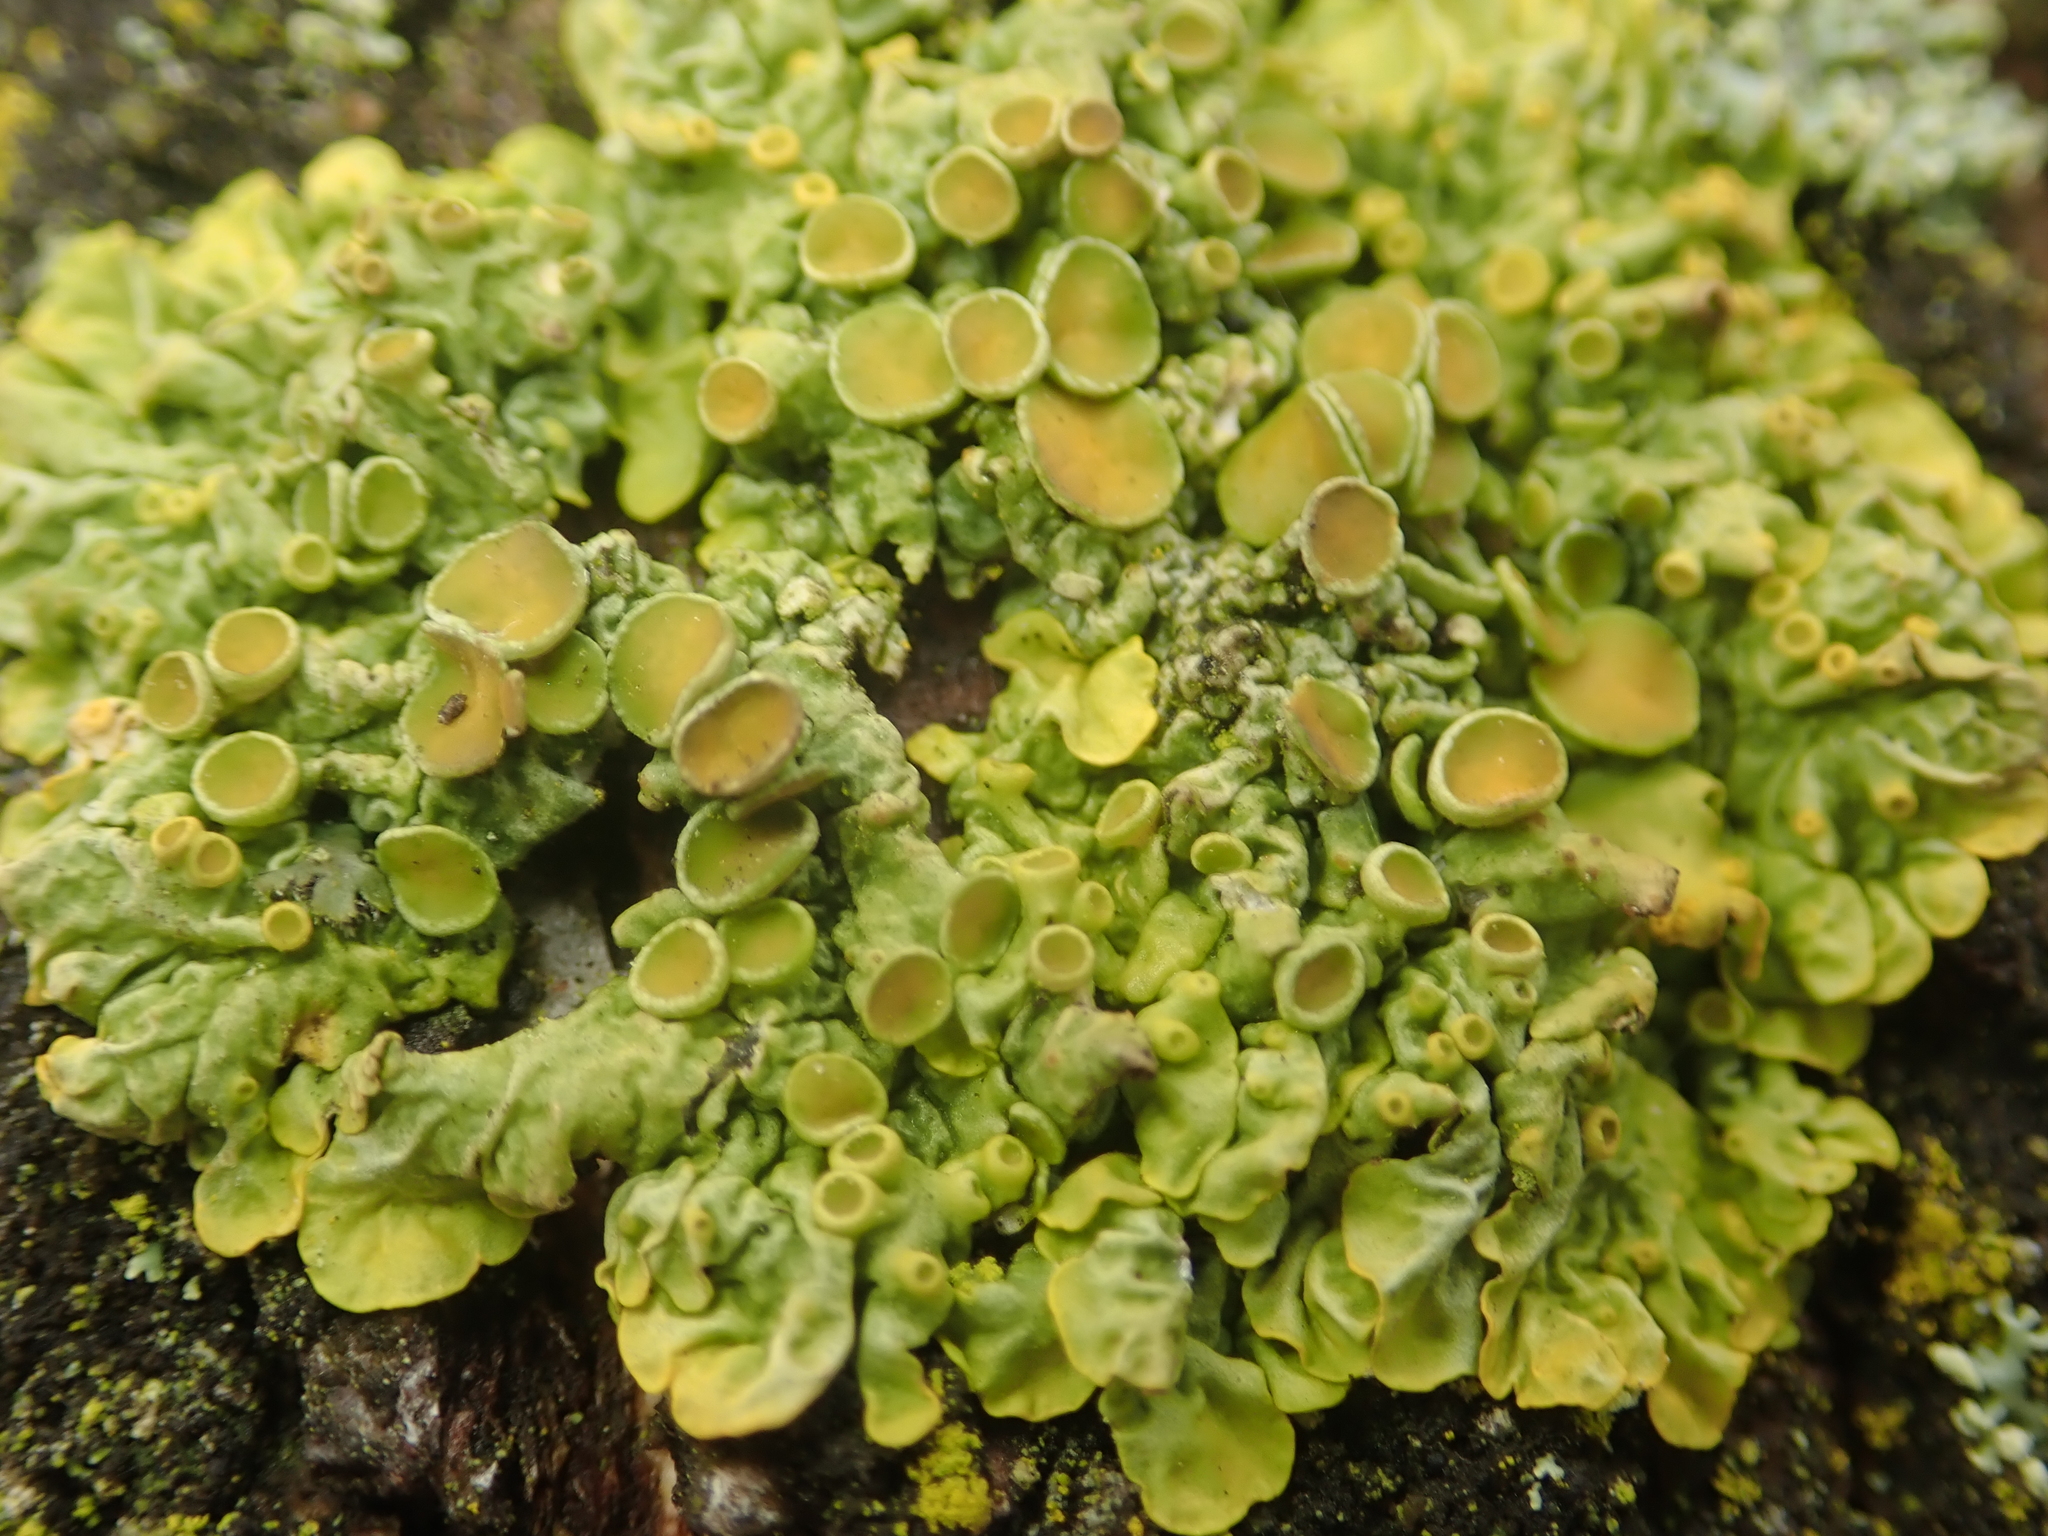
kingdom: Fungi
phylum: Ascomycota
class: Lecanoromycetes
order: Teloschistales
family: Teloschistaceae
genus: Xanthoria
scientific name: Xanthoria parietina
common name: Common orange lichen
